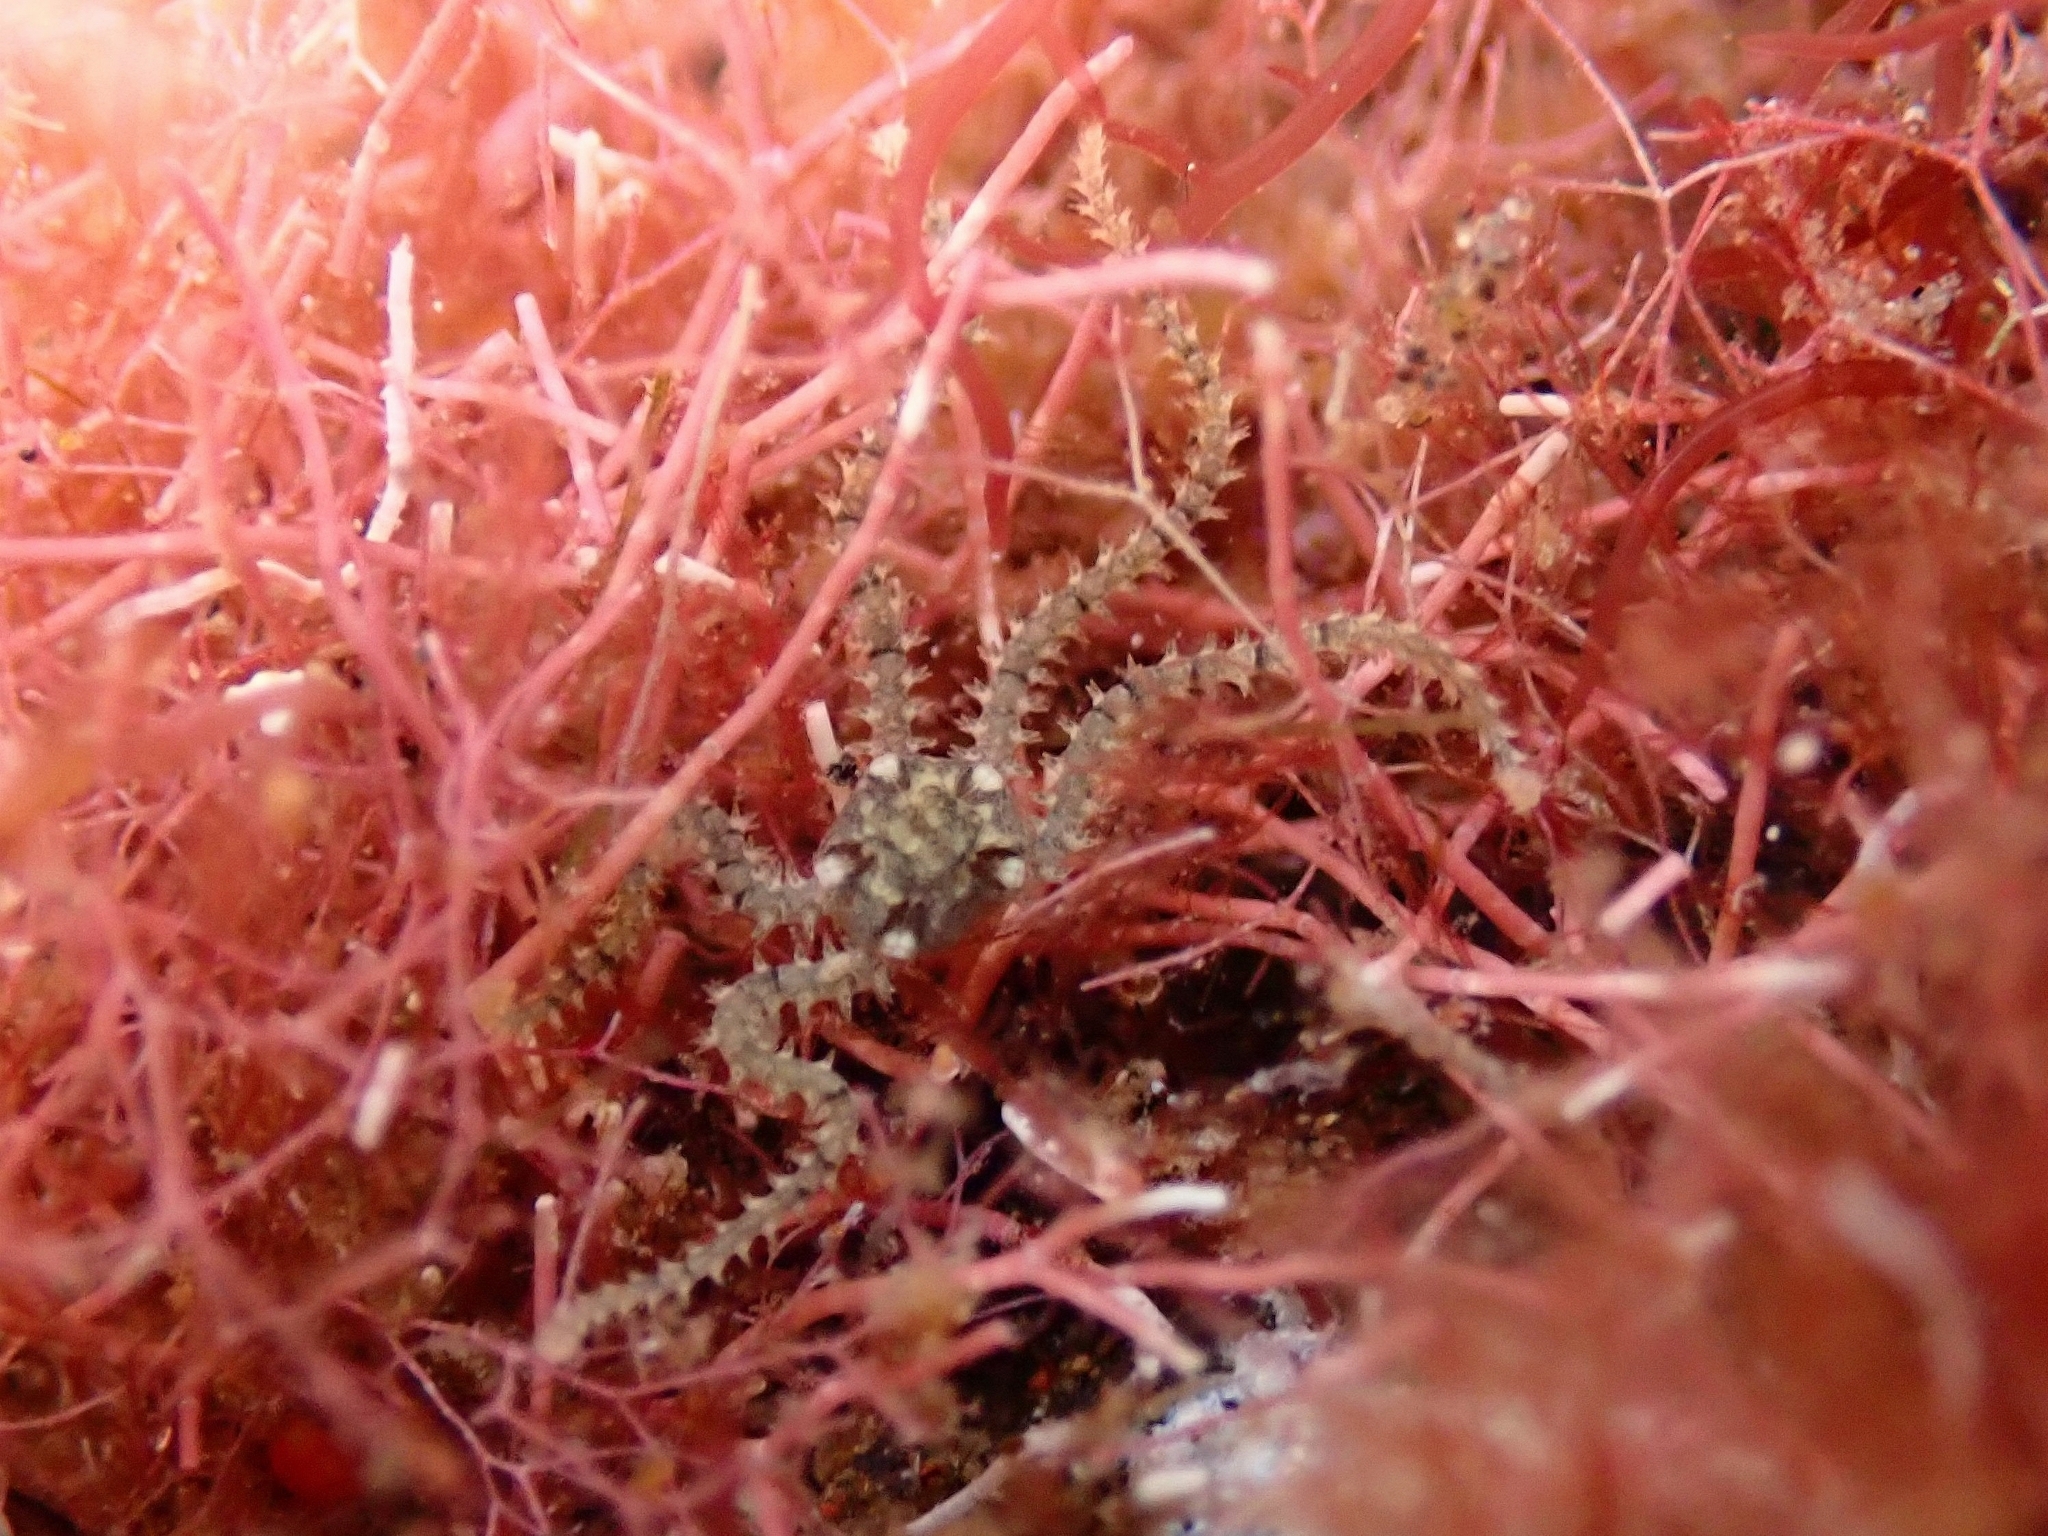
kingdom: Animalia
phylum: Echinodermata
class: Ophiuroidea
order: Amphilepidida
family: Amphiuridae
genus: Amphipholis
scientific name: Amphipholis squamata
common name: Brooding snake star
